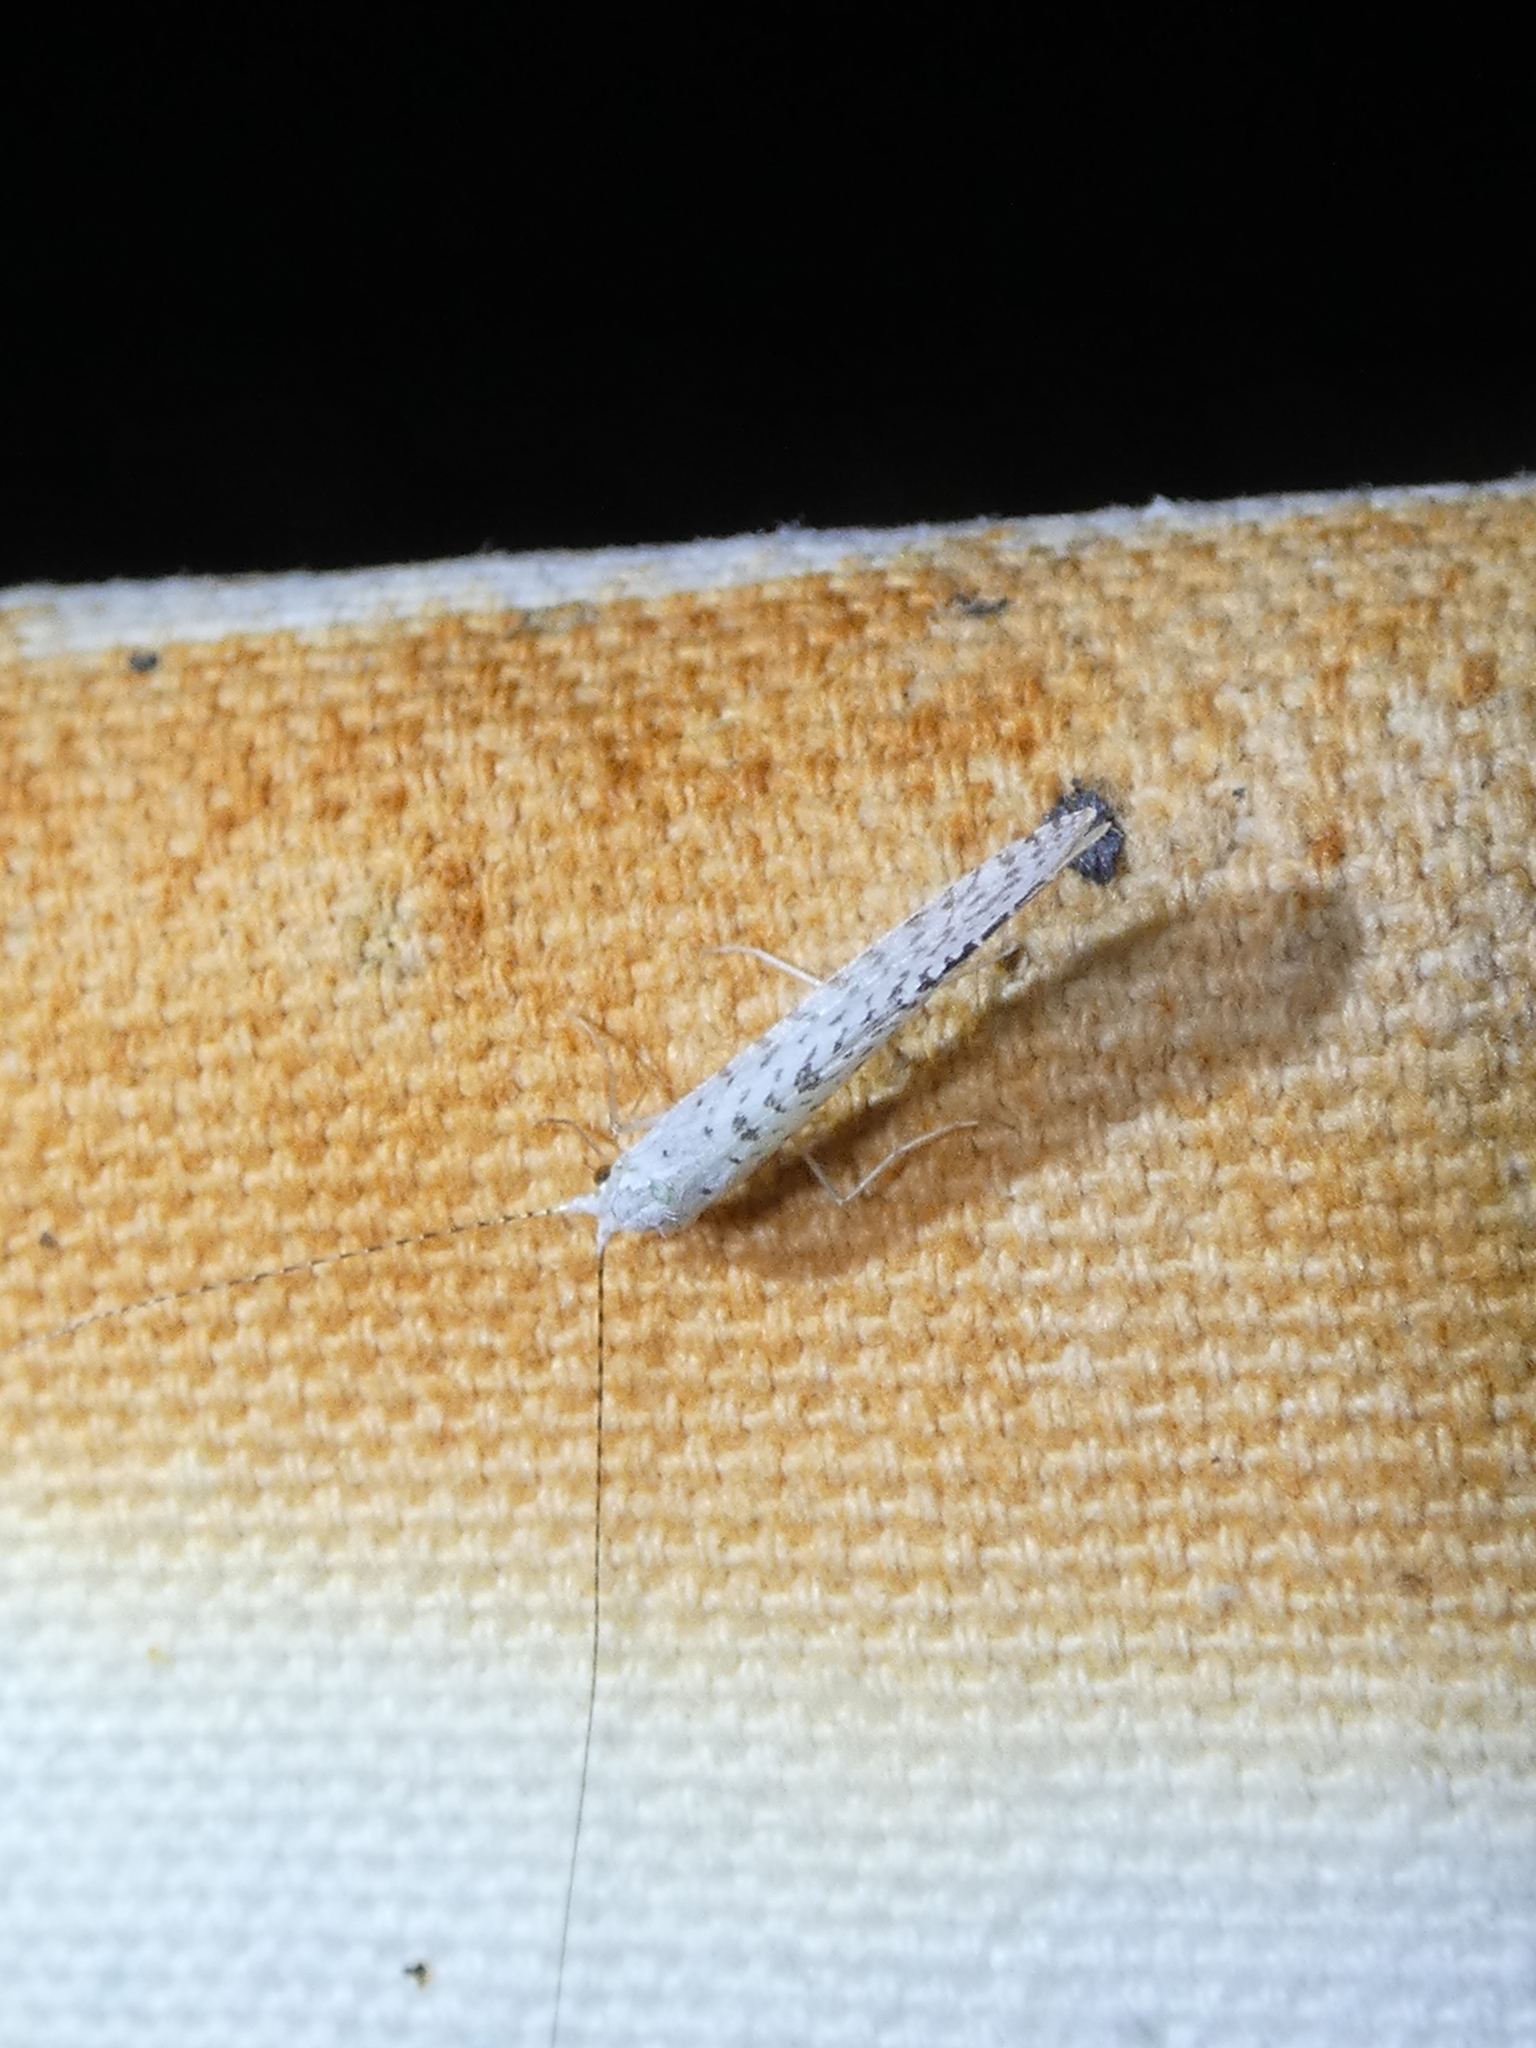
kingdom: Animalia
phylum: Arthropoda
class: Insecta
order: Trichoptera
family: Leptoceridae
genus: Nectopsyche
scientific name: Nectopsyche candida
